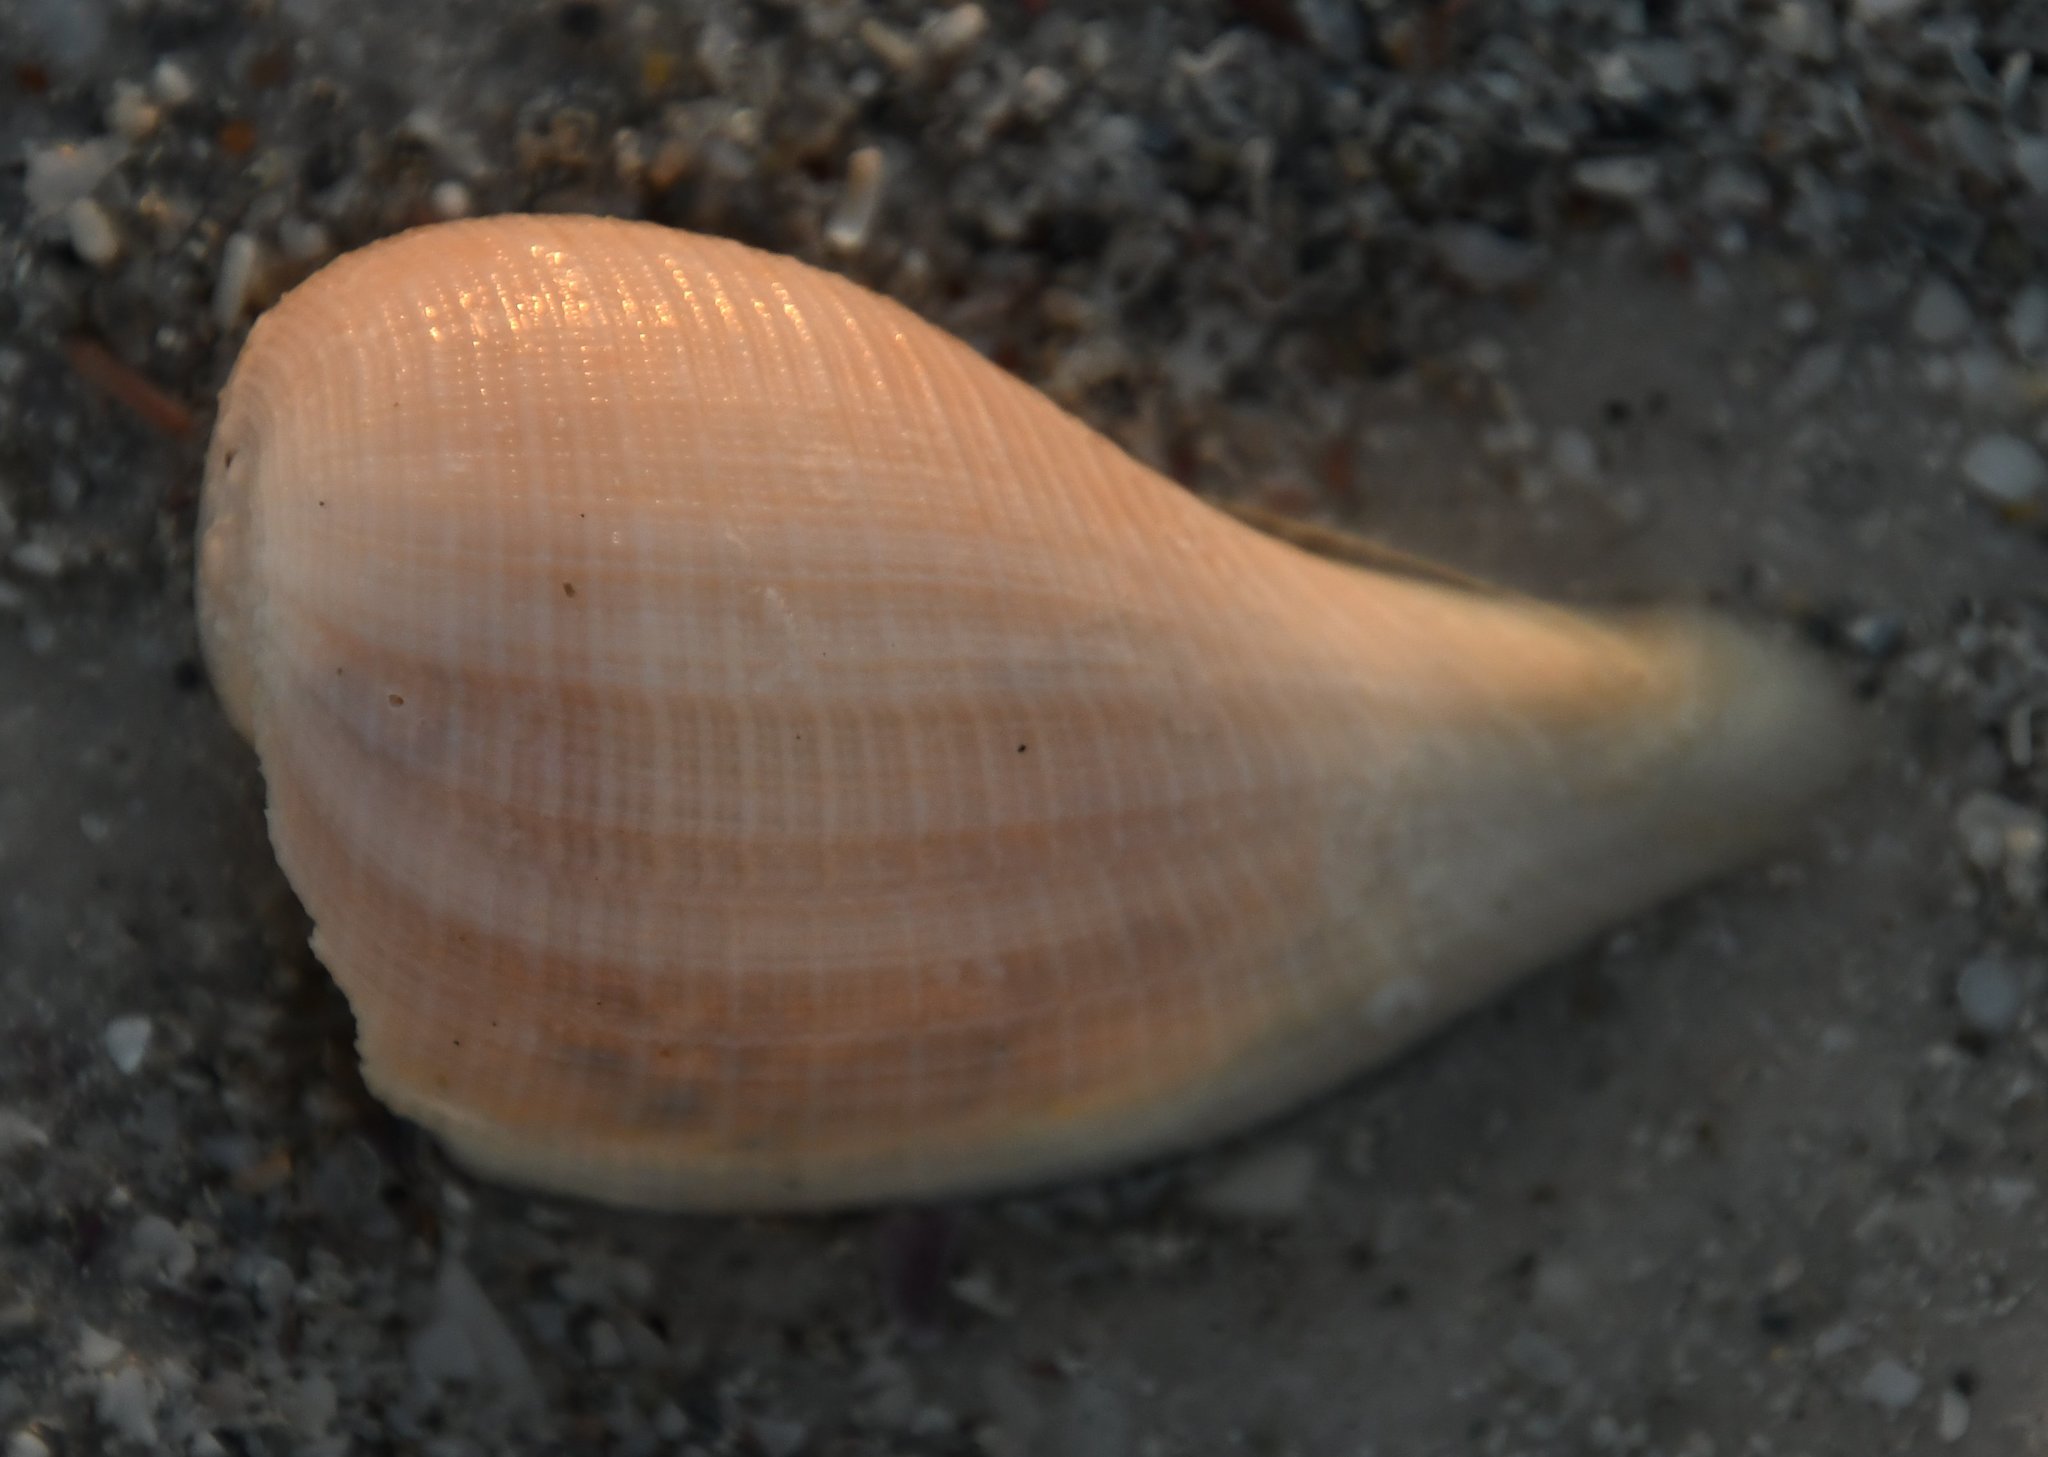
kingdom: Animalia
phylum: Mollusca
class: Gastropoda
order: Littorinimorpha
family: Ficidae
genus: Ficus
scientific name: Ficus papyratia
